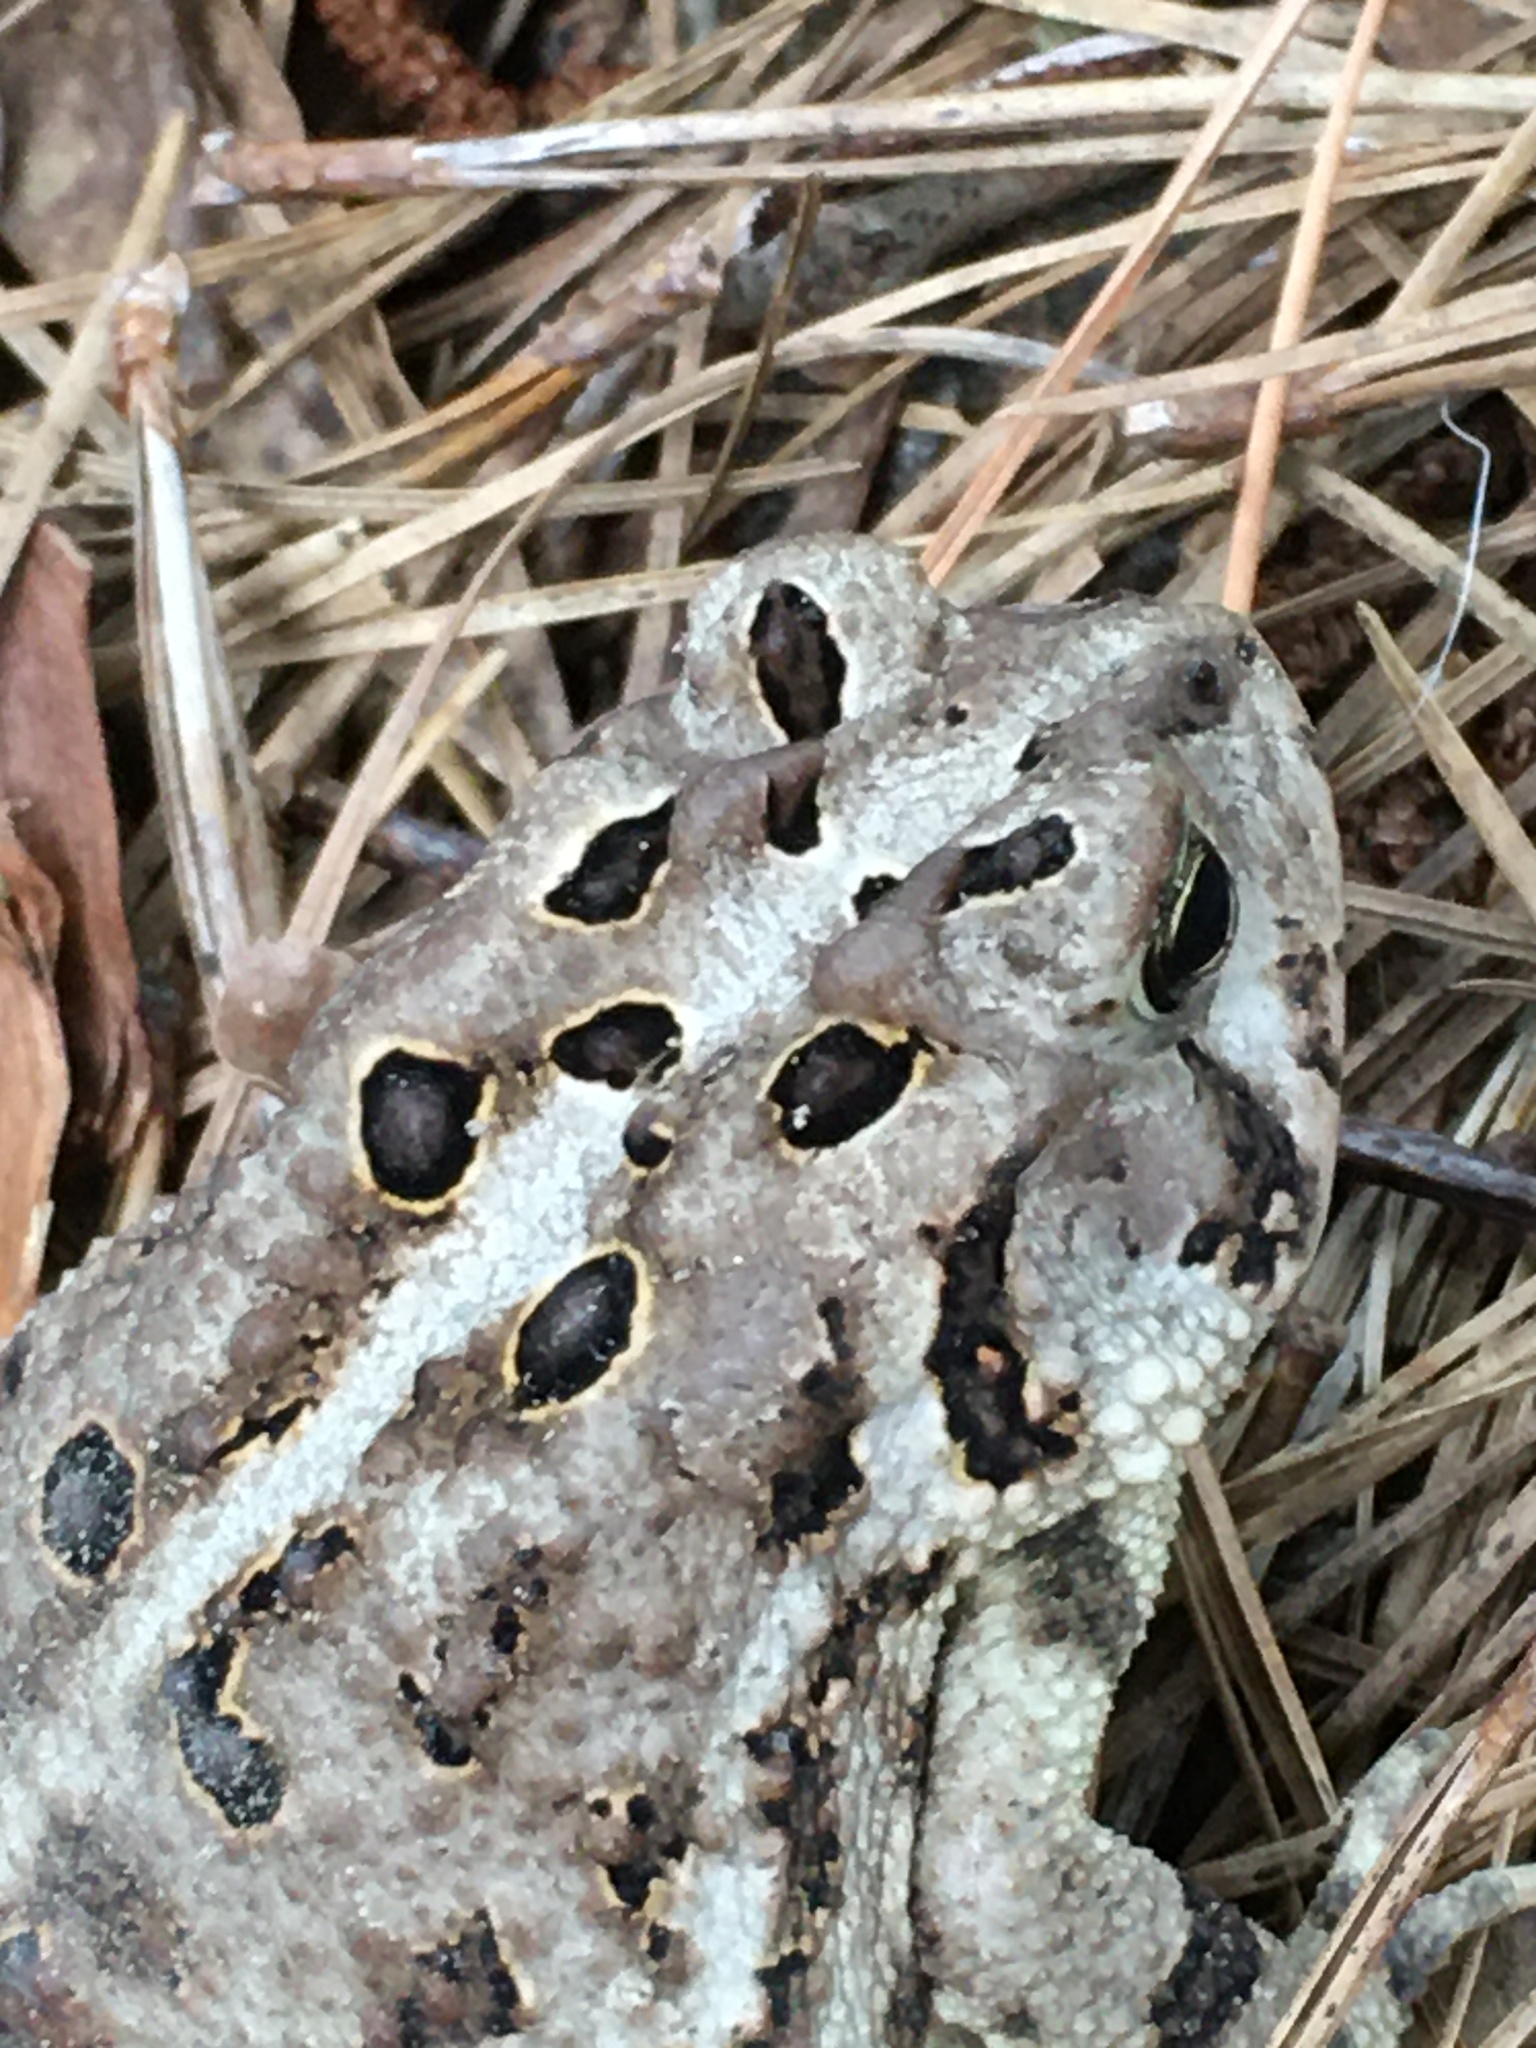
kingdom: Animalia
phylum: Chordata
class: Amphibia
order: Anura
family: Bufonidae
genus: Anaxyrus
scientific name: Anaxyrus terrestris
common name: Southern toad
